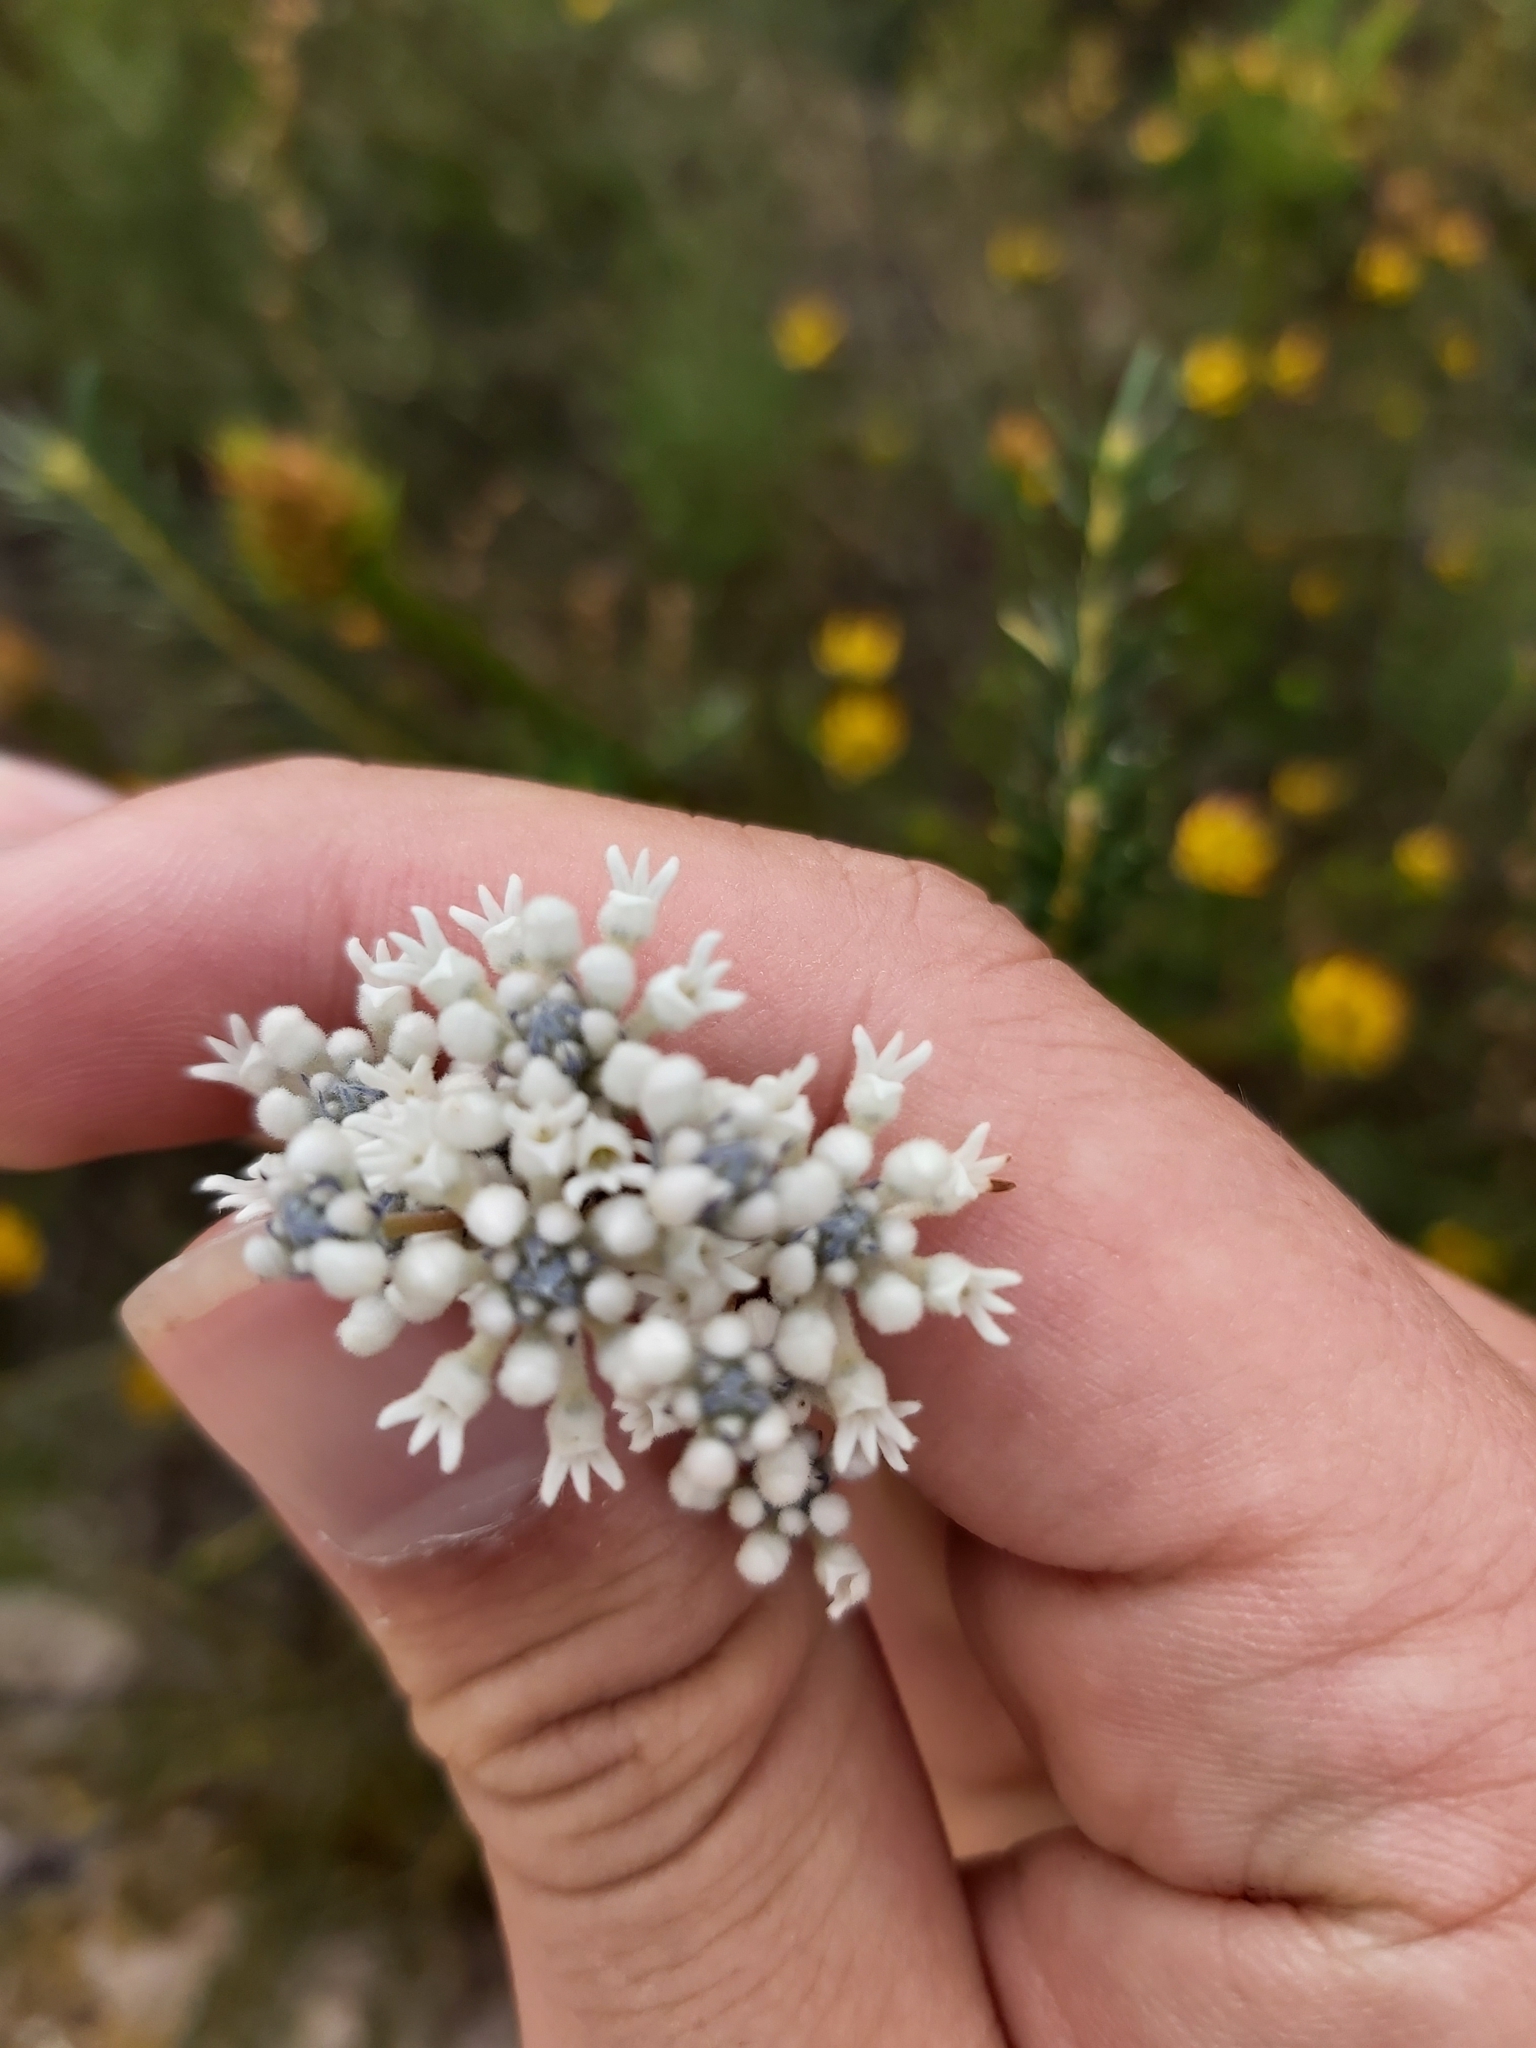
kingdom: Plantae
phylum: Tracheophyta
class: Magnoliopsida
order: Proteales
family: Proteaceae
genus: Conospermum
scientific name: Conospermum ericifolium
